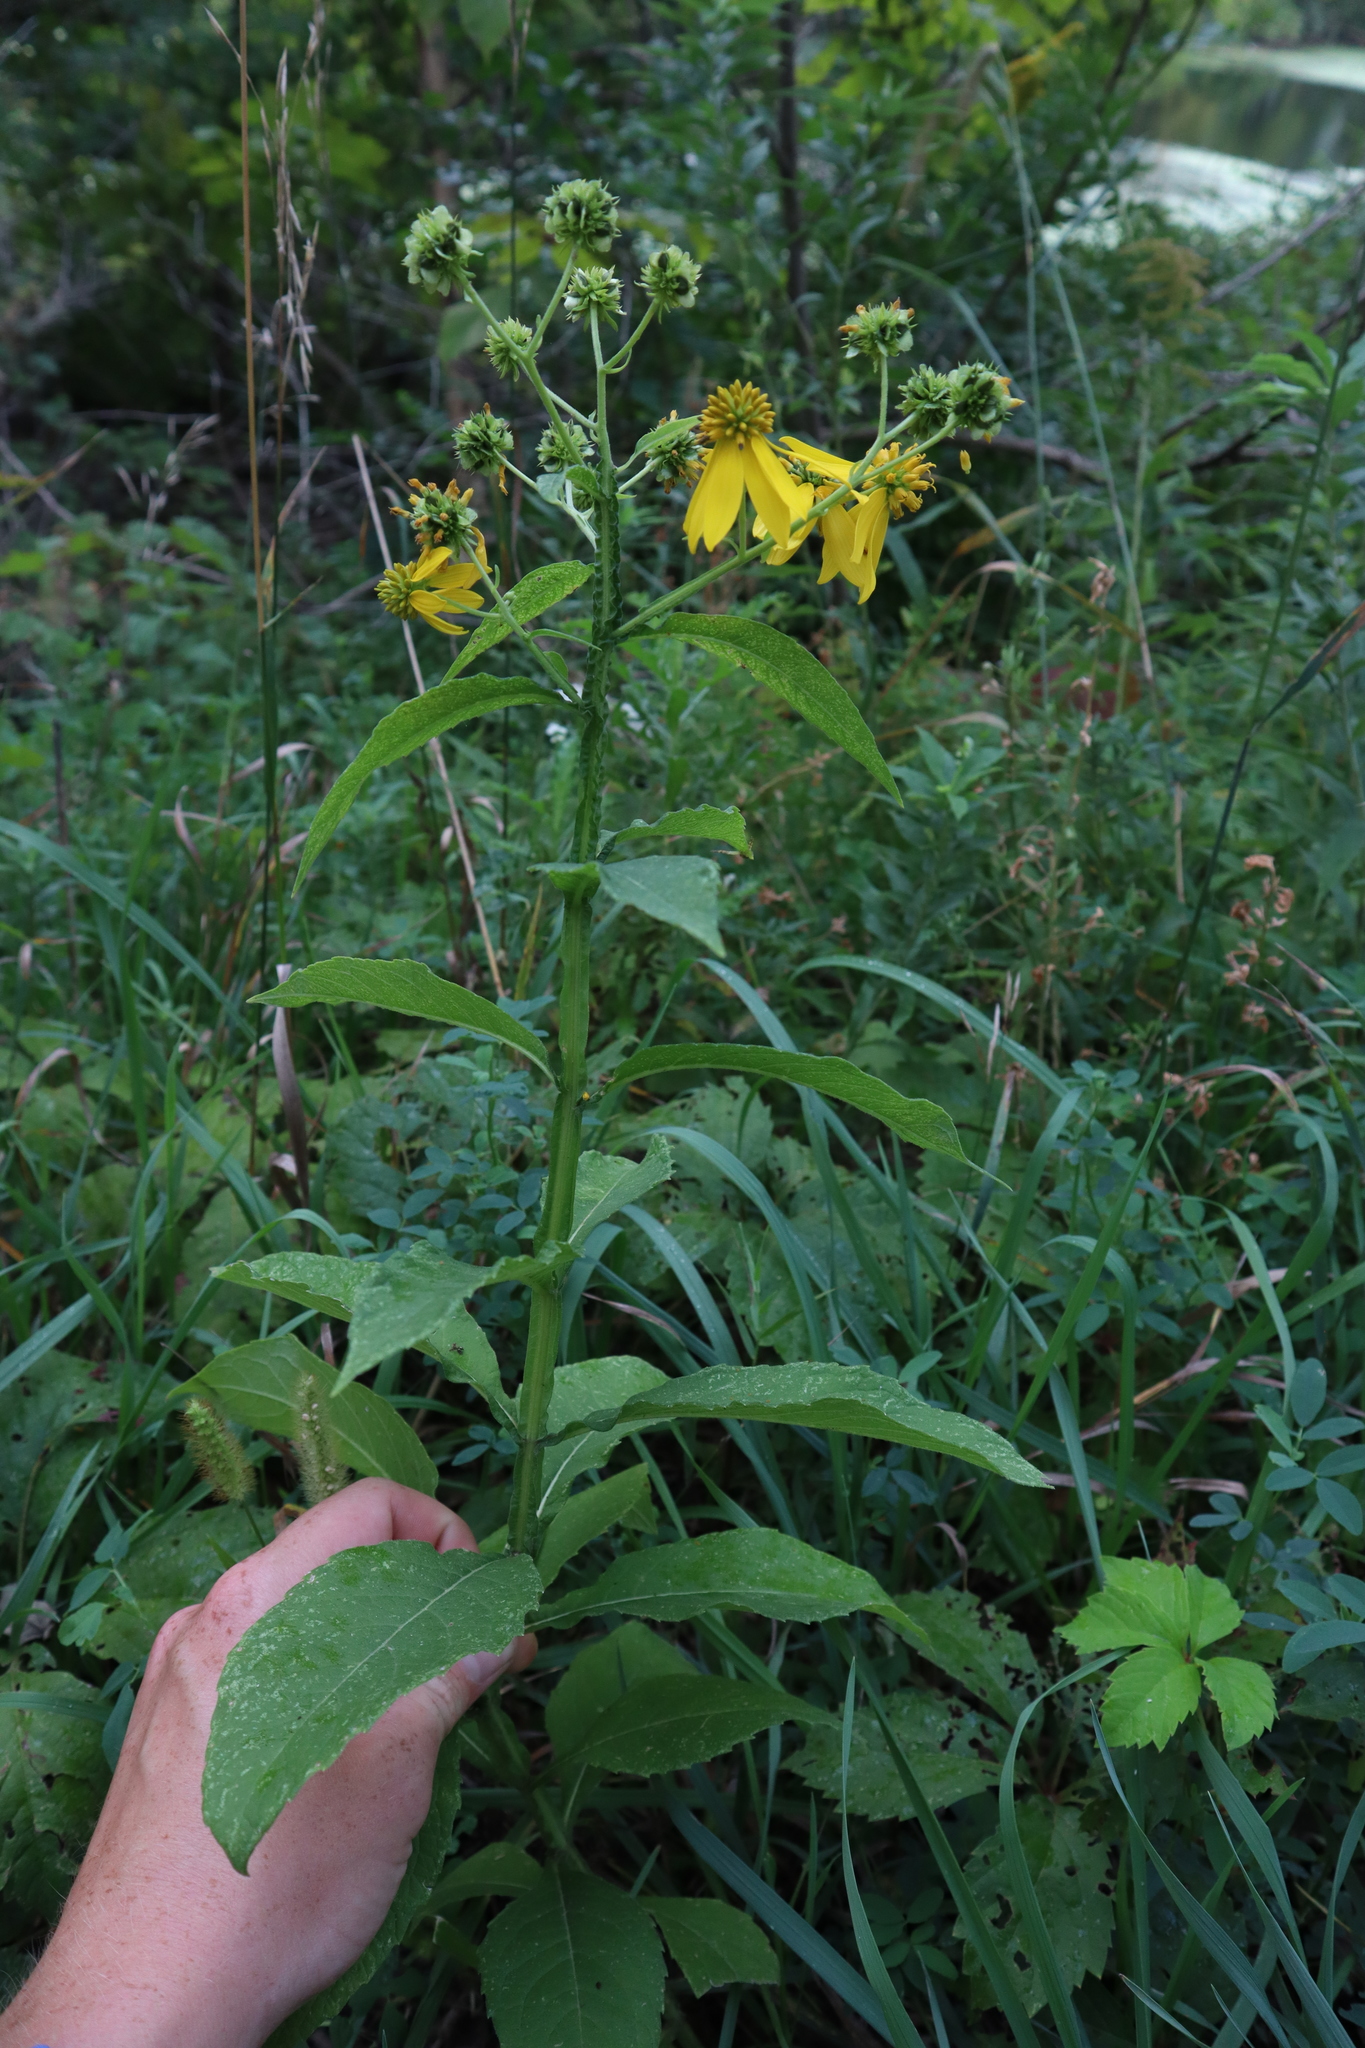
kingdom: Plantae
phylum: Tracheophyta
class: Magnoliopsida
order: Asterales
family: Asteraceae
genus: Verbesina
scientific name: Verbesina alternifolia
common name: Wingstem
